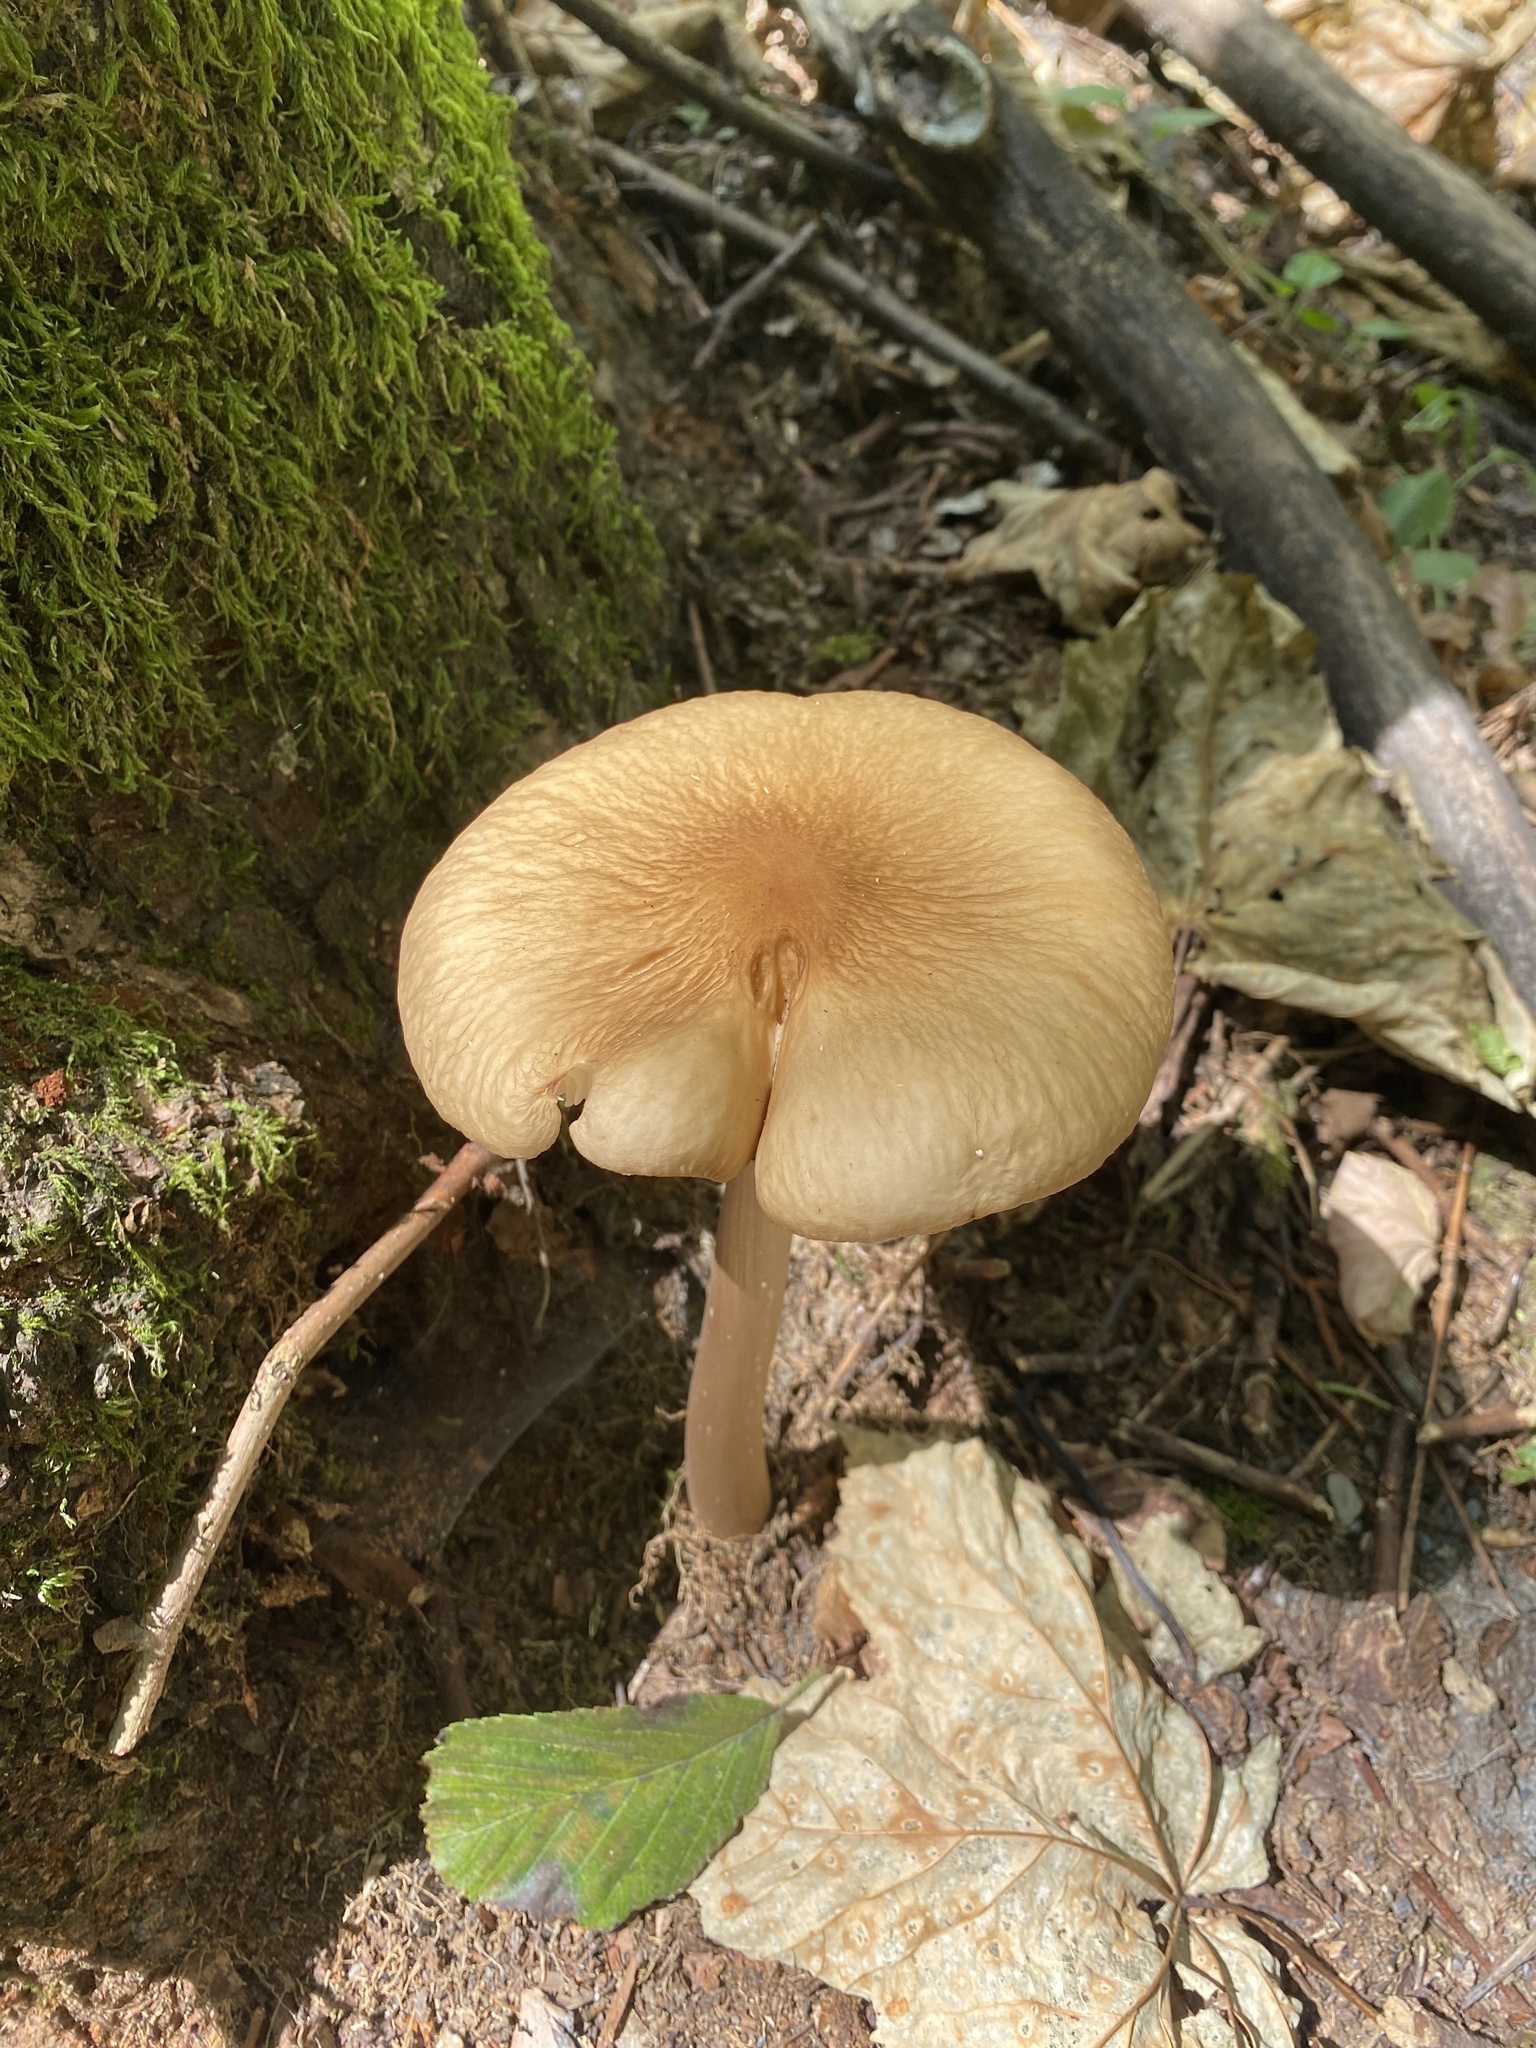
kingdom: Fungi
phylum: Basidiomycota
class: Agaricomycetes
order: Agaricales
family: Physalacriaceae
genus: Hymenopellis
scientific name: Hymenopellis radicata
